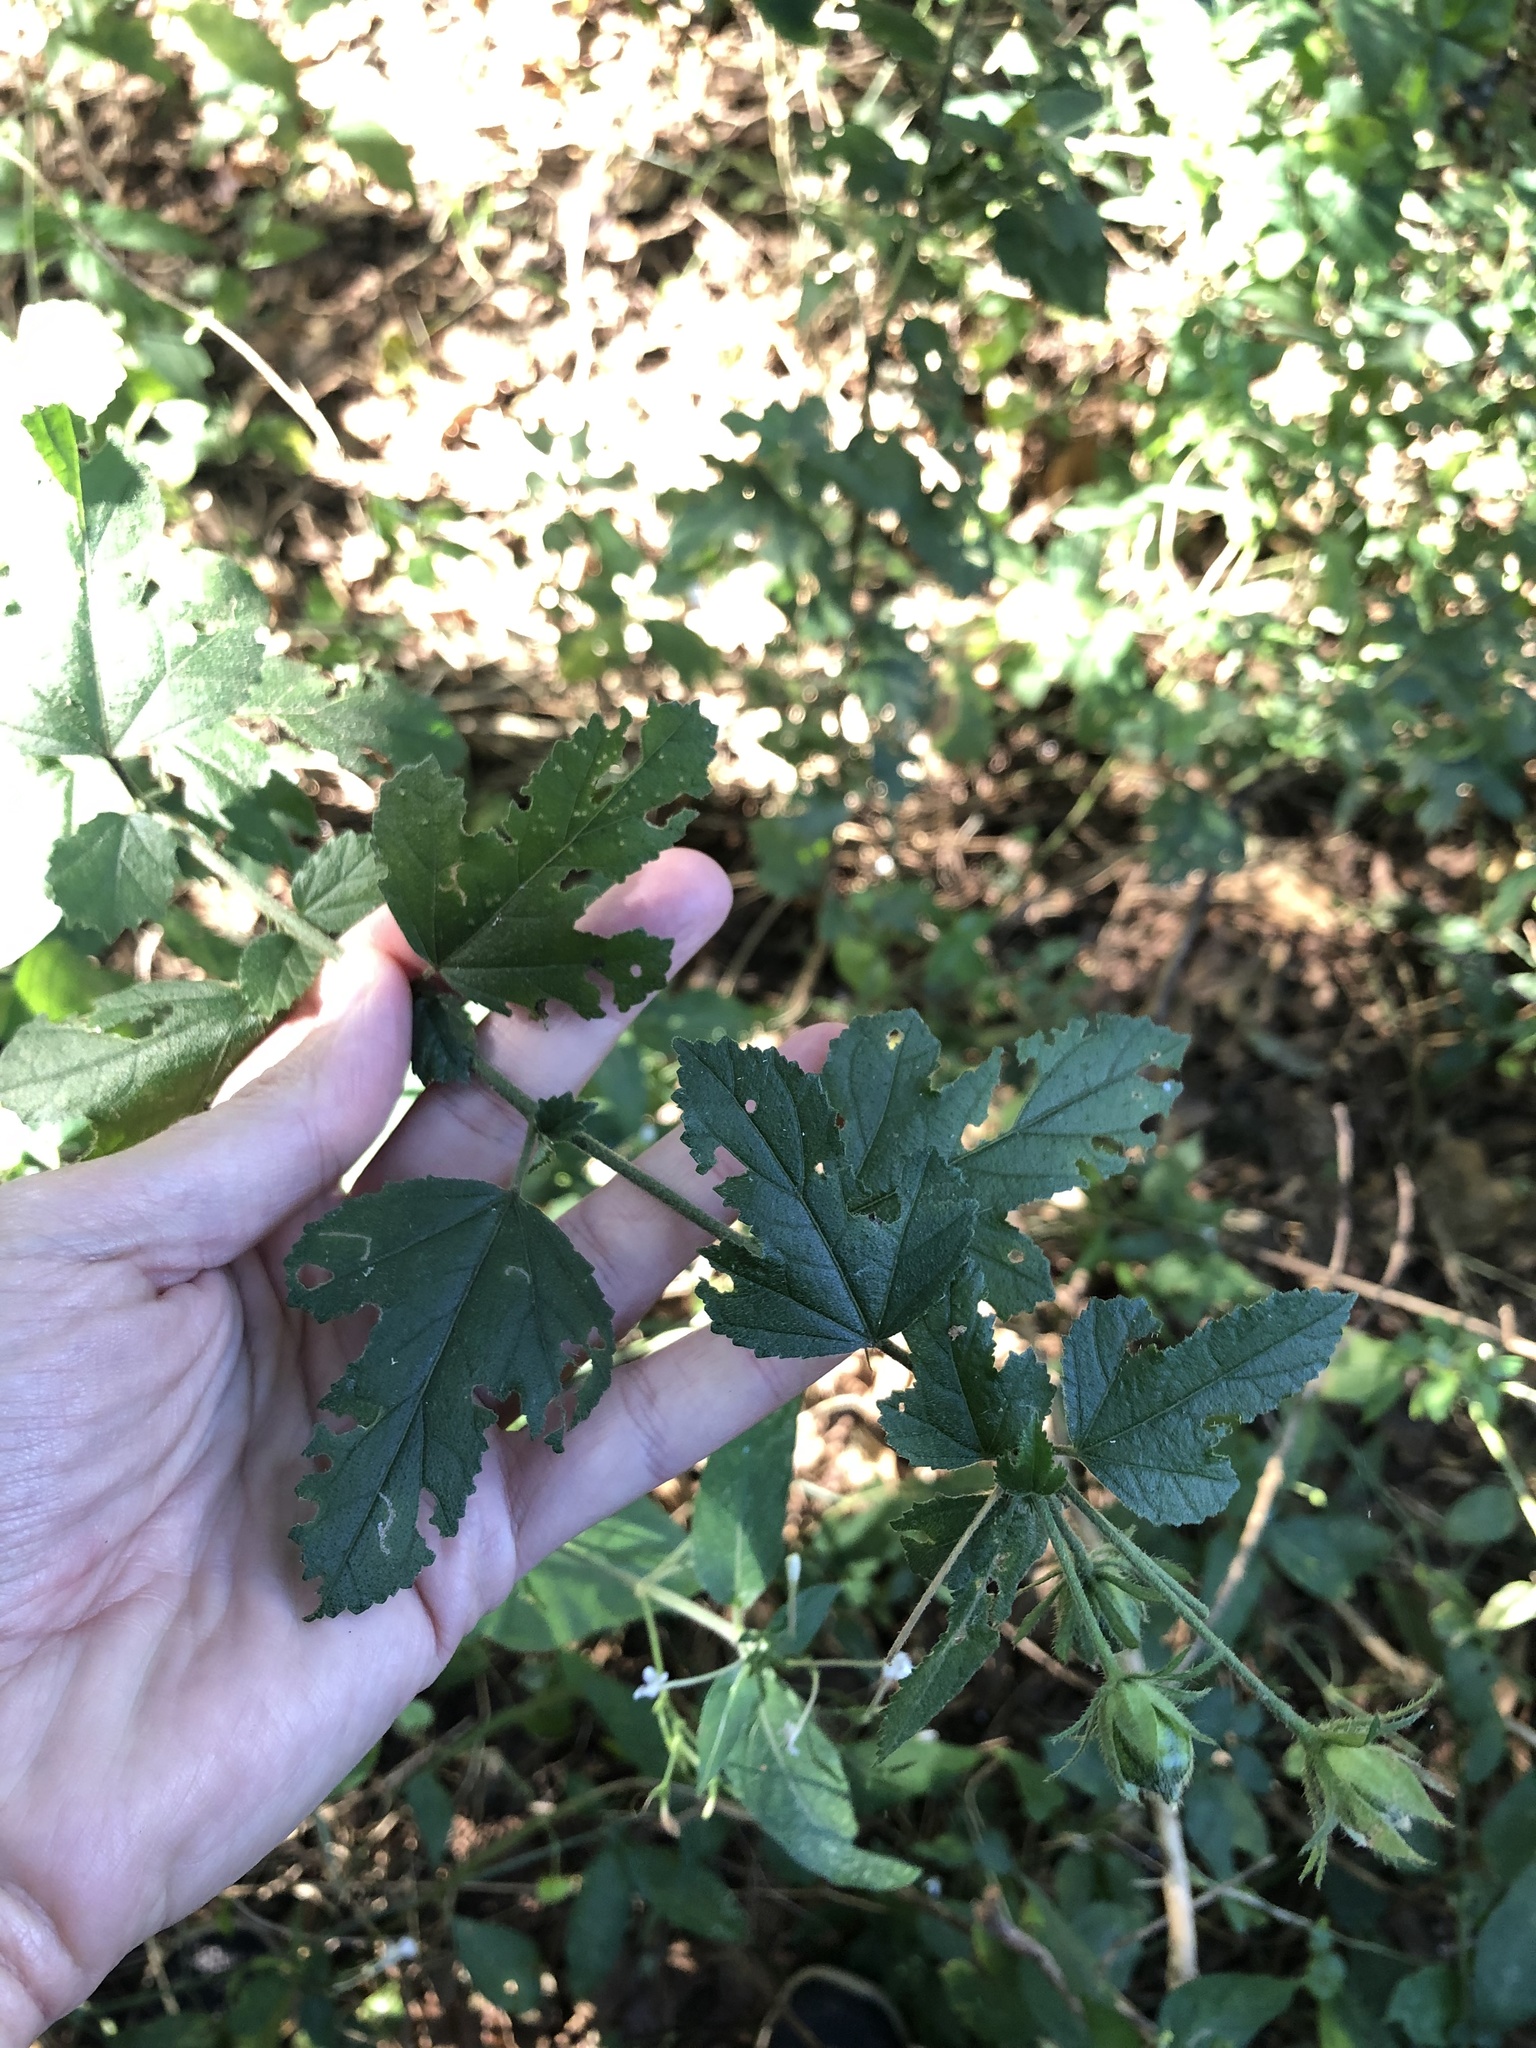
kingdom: Plantae
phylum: Tracheophyta
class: Magnoliopsida
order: Malvales
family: Malvaceae
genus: Hibiscus
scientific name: Hibiscus pedunculatus
